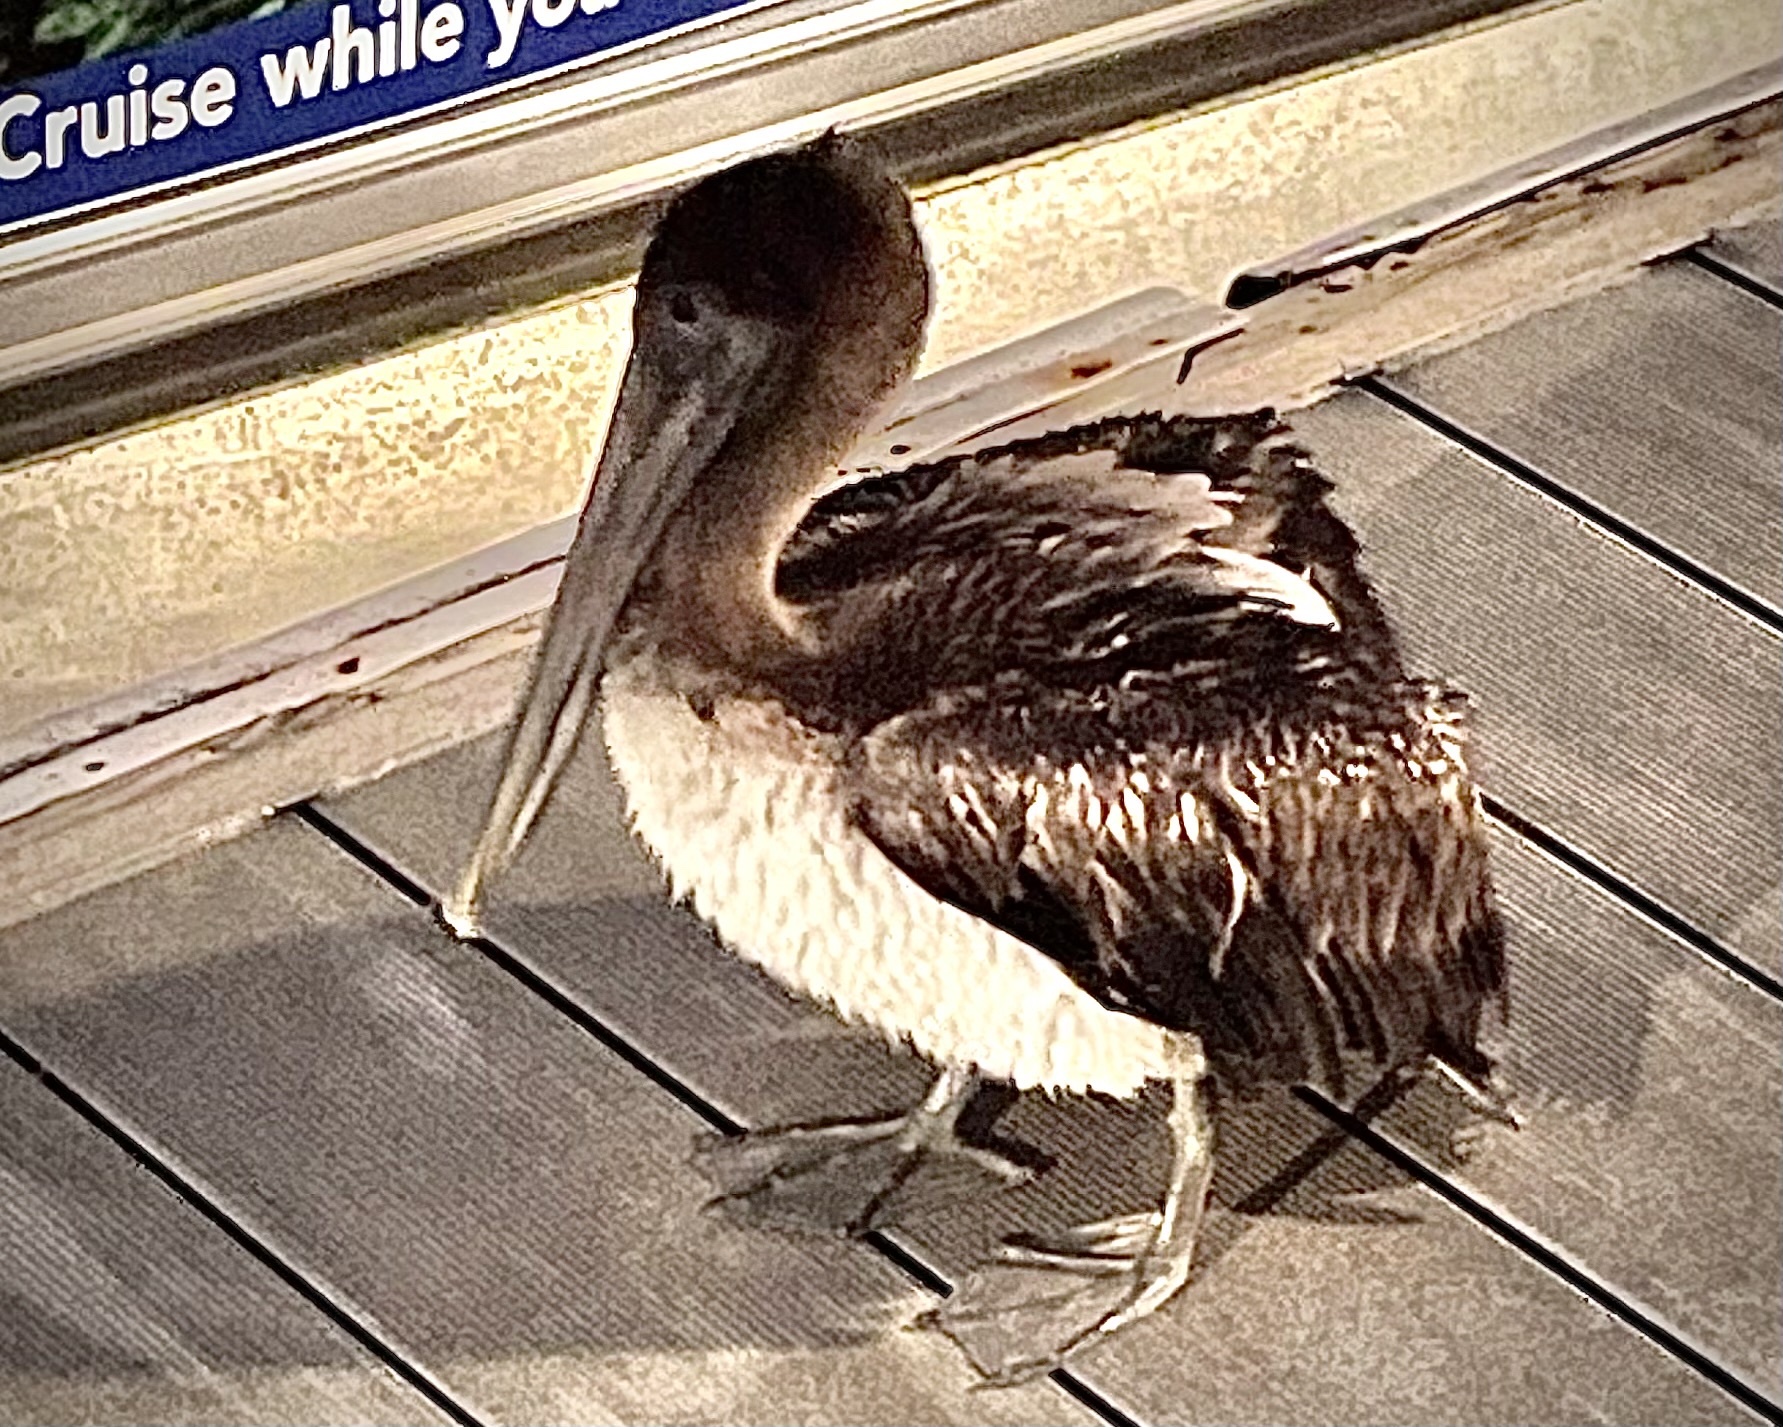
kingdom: Animalia
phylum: Chordata
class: Aves
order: Pelecaniformes
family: Pelecanidae
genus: Pelecanus
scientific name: Pelecanus occidentalis
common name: Brown pelican
